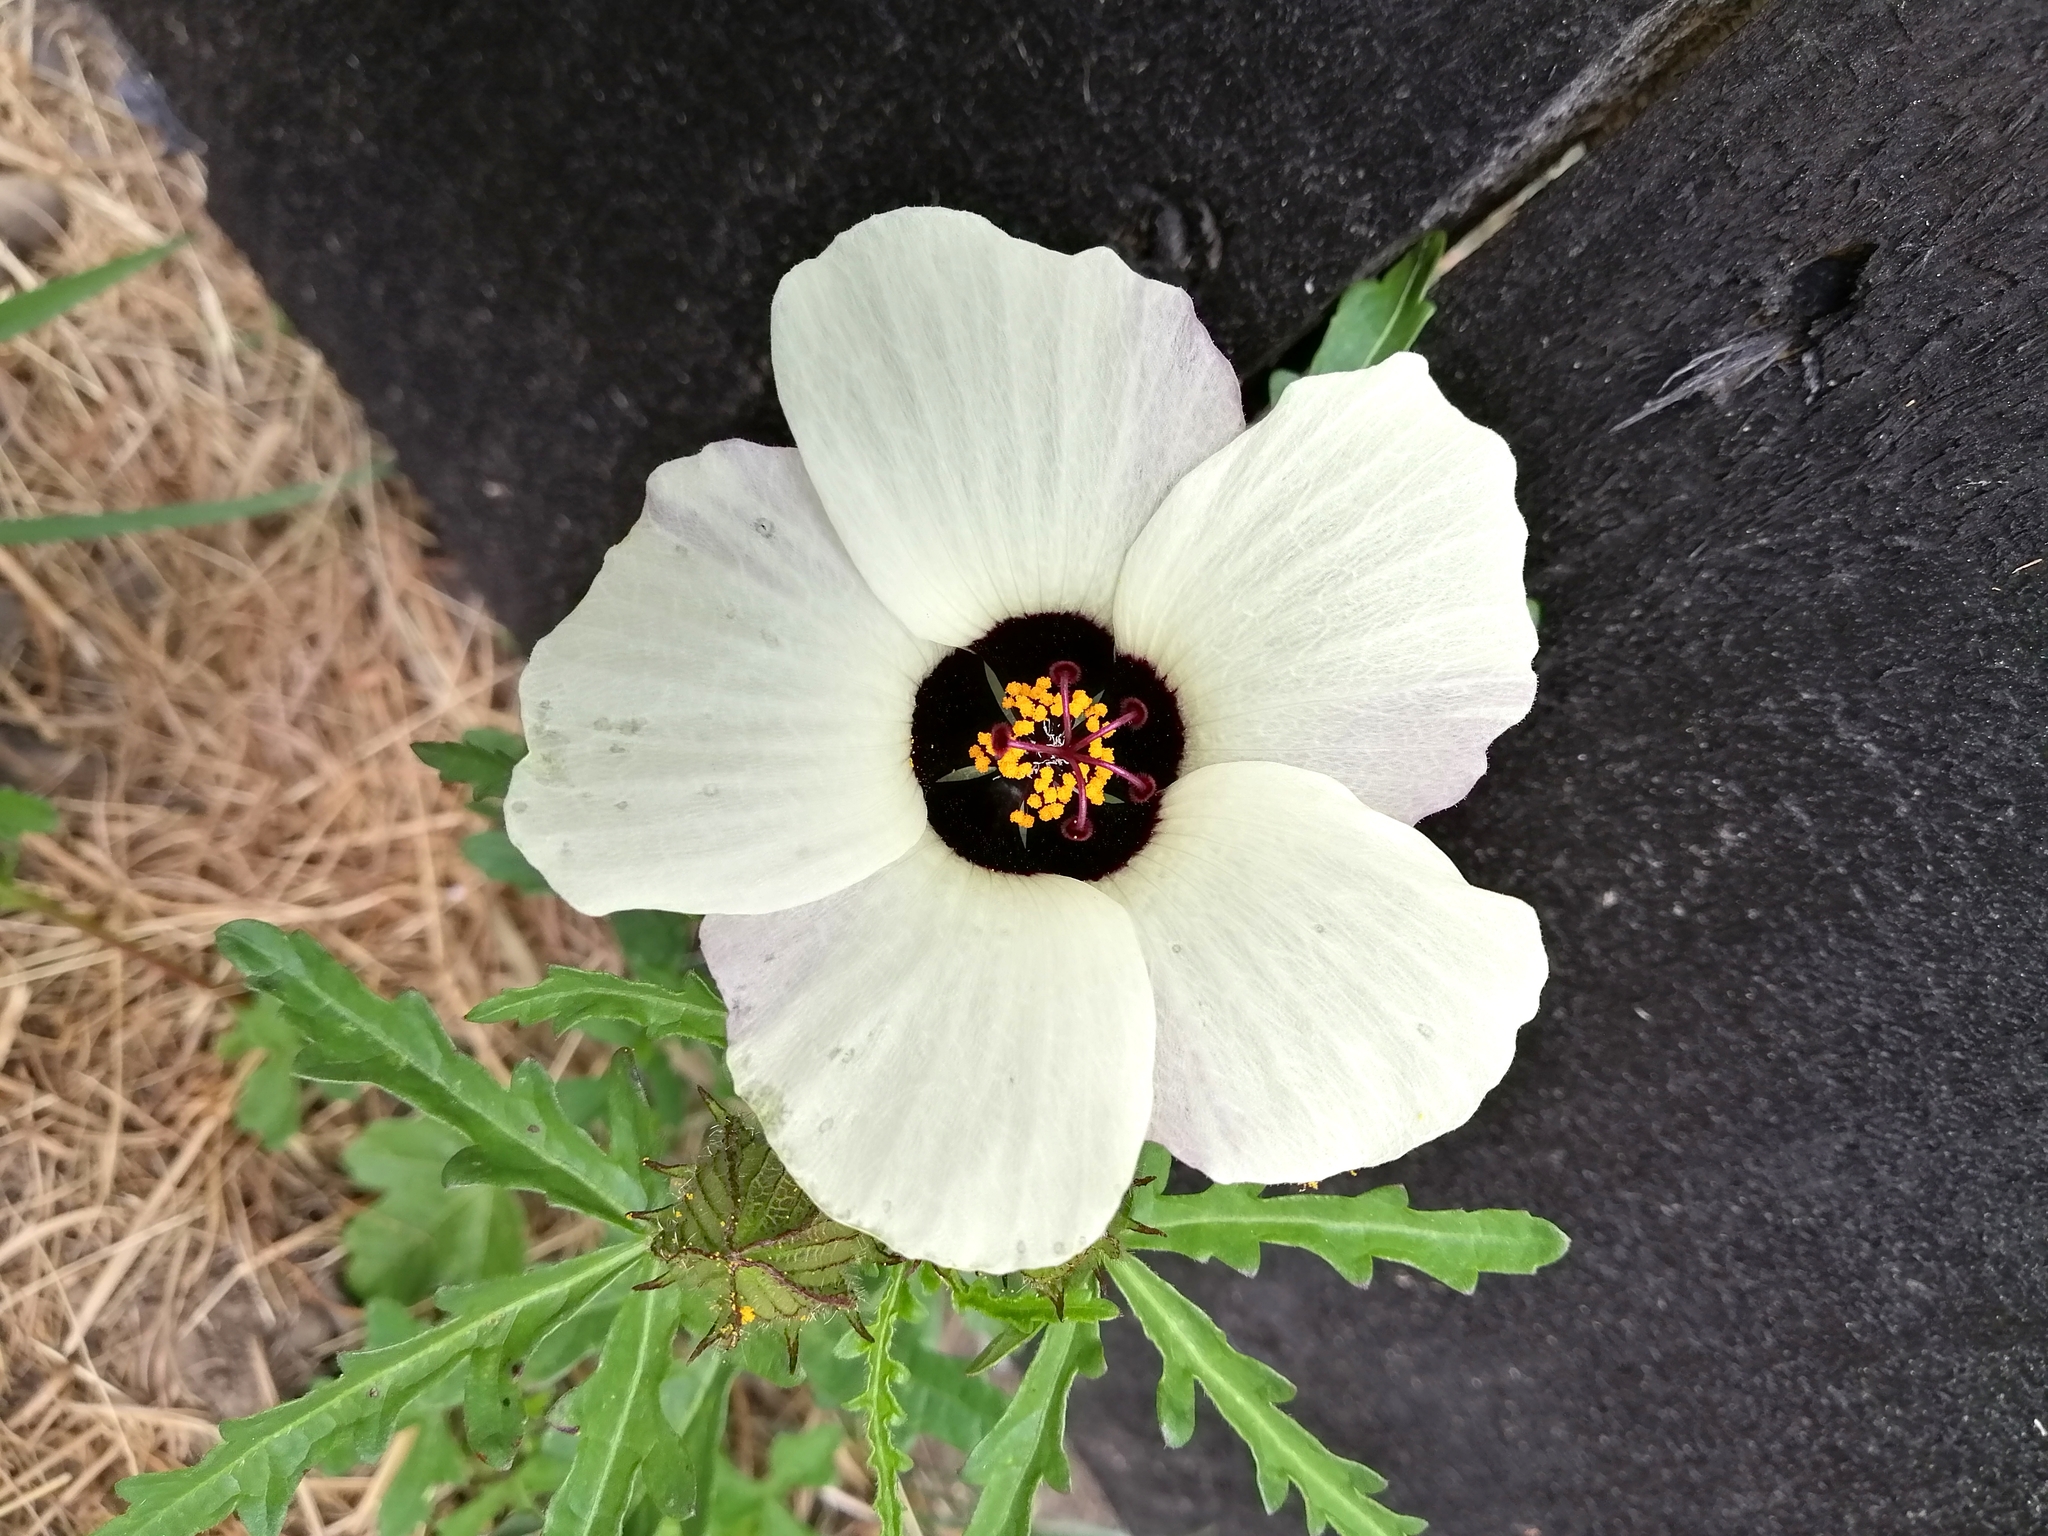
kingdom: Plantae
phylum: Tracheophyta
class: Magnoliopsida
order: Malvales
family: Malvaceae
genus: Hibiscus
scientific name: Hibiscus trionum
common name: Bladder ketmia
